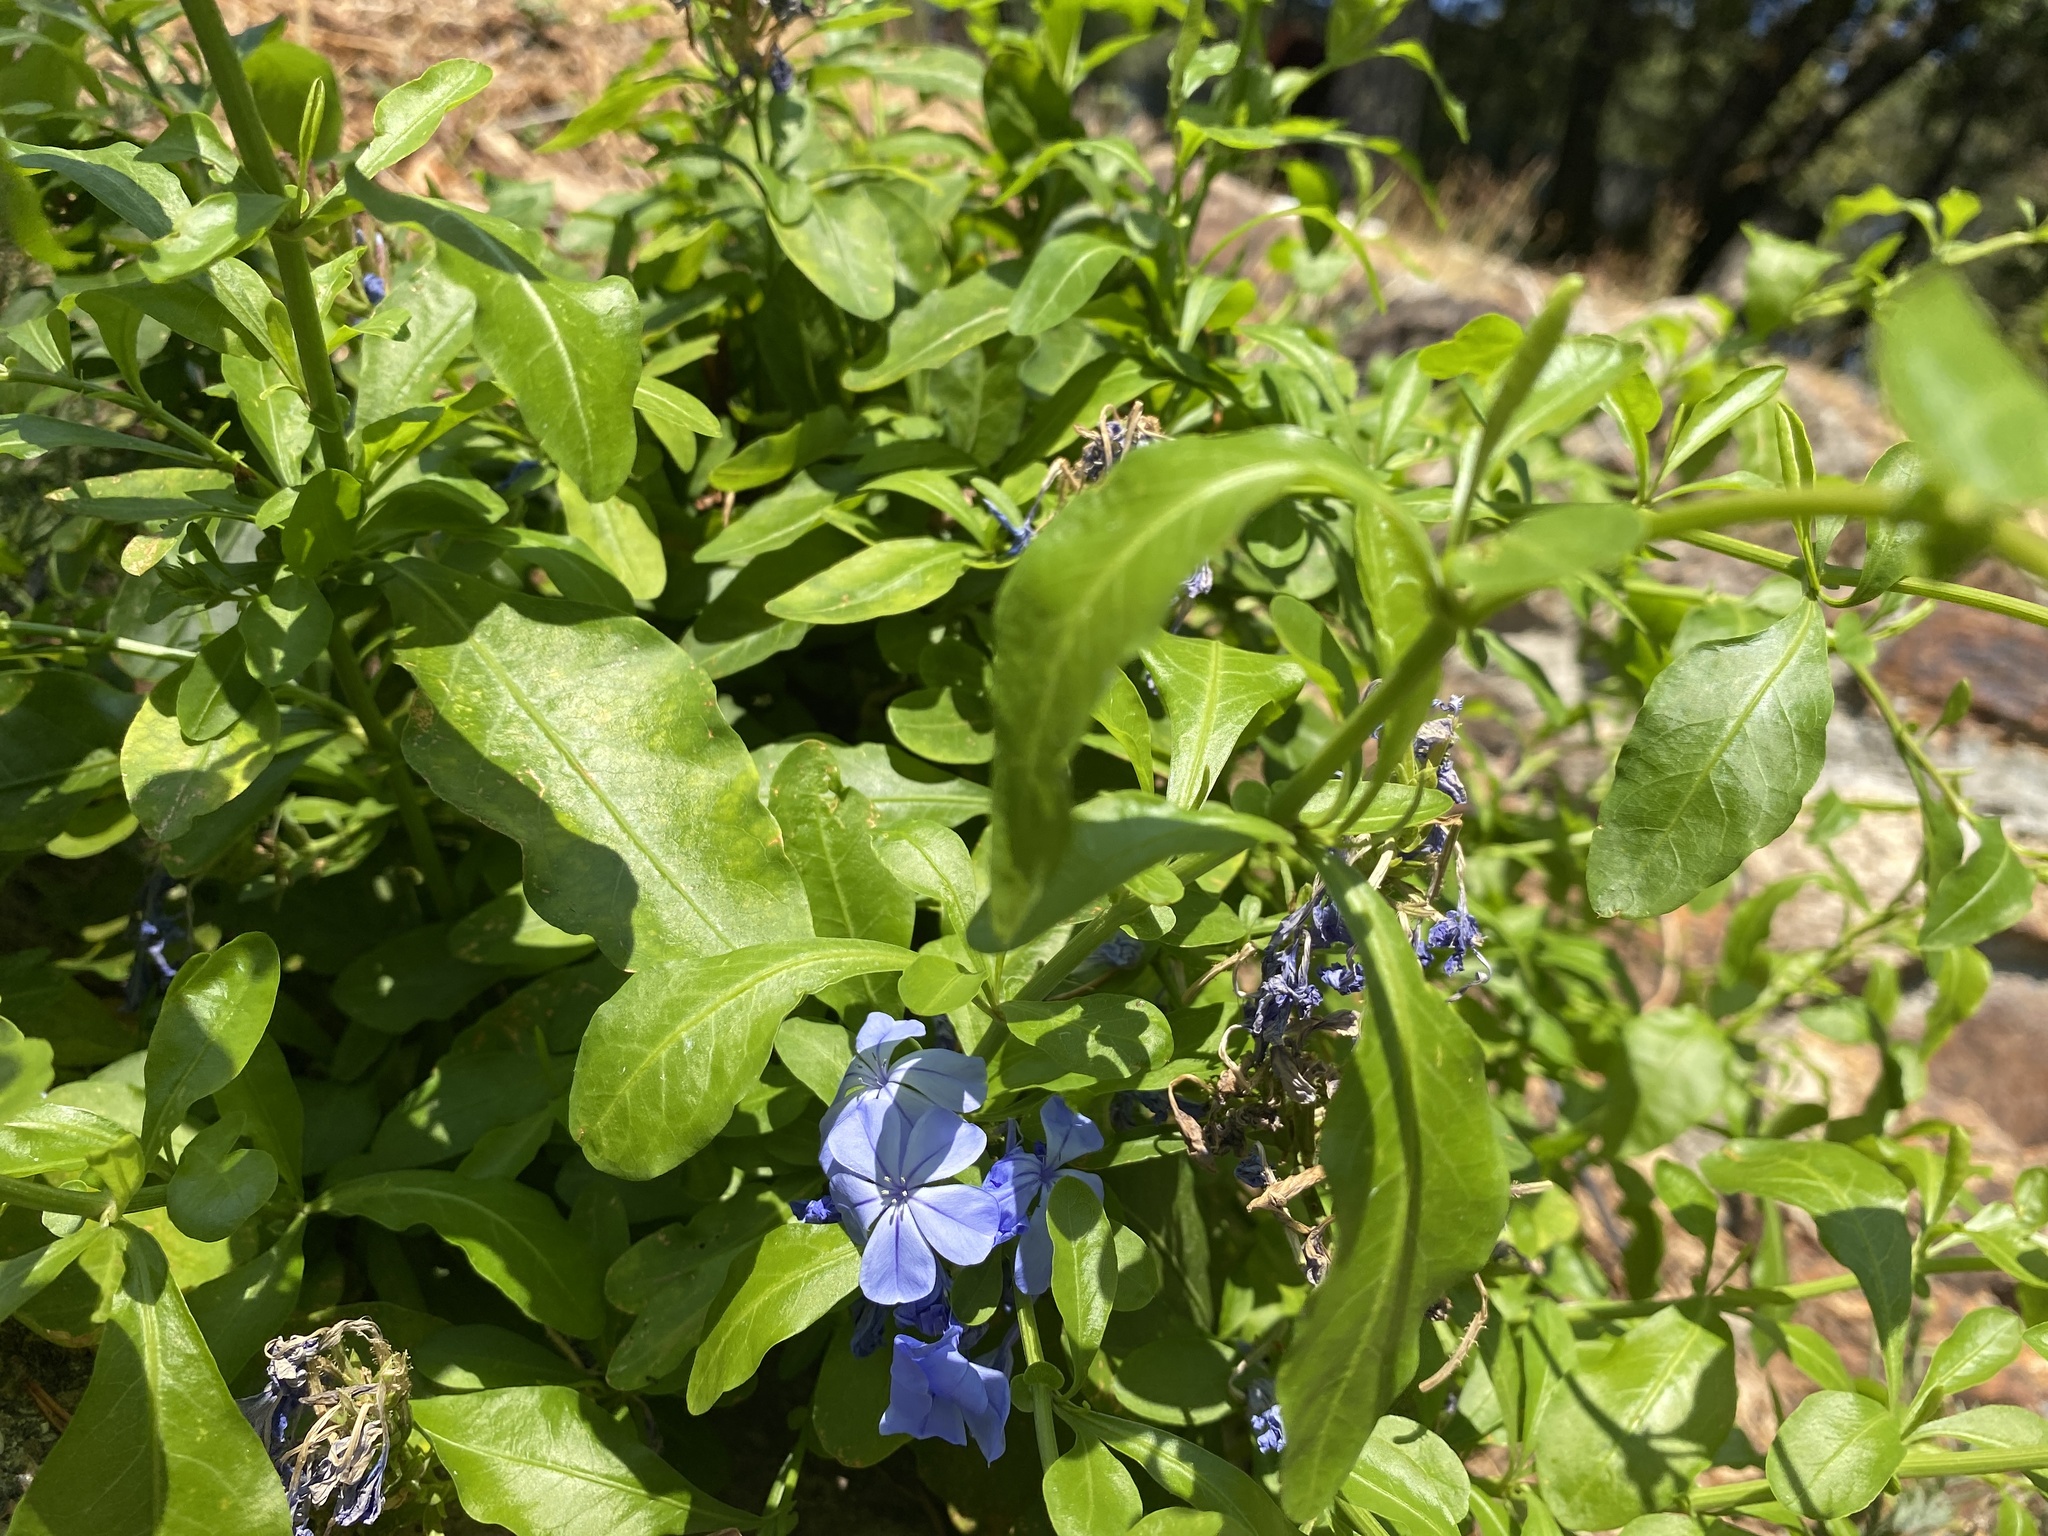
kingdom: Plantae
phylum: Tracheophyta
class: Magnoliopsida
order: Caryophyllales
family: Plumbaginaceae
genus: Plumbago
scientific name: Plumbago auriculata
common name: Cape leadwort
